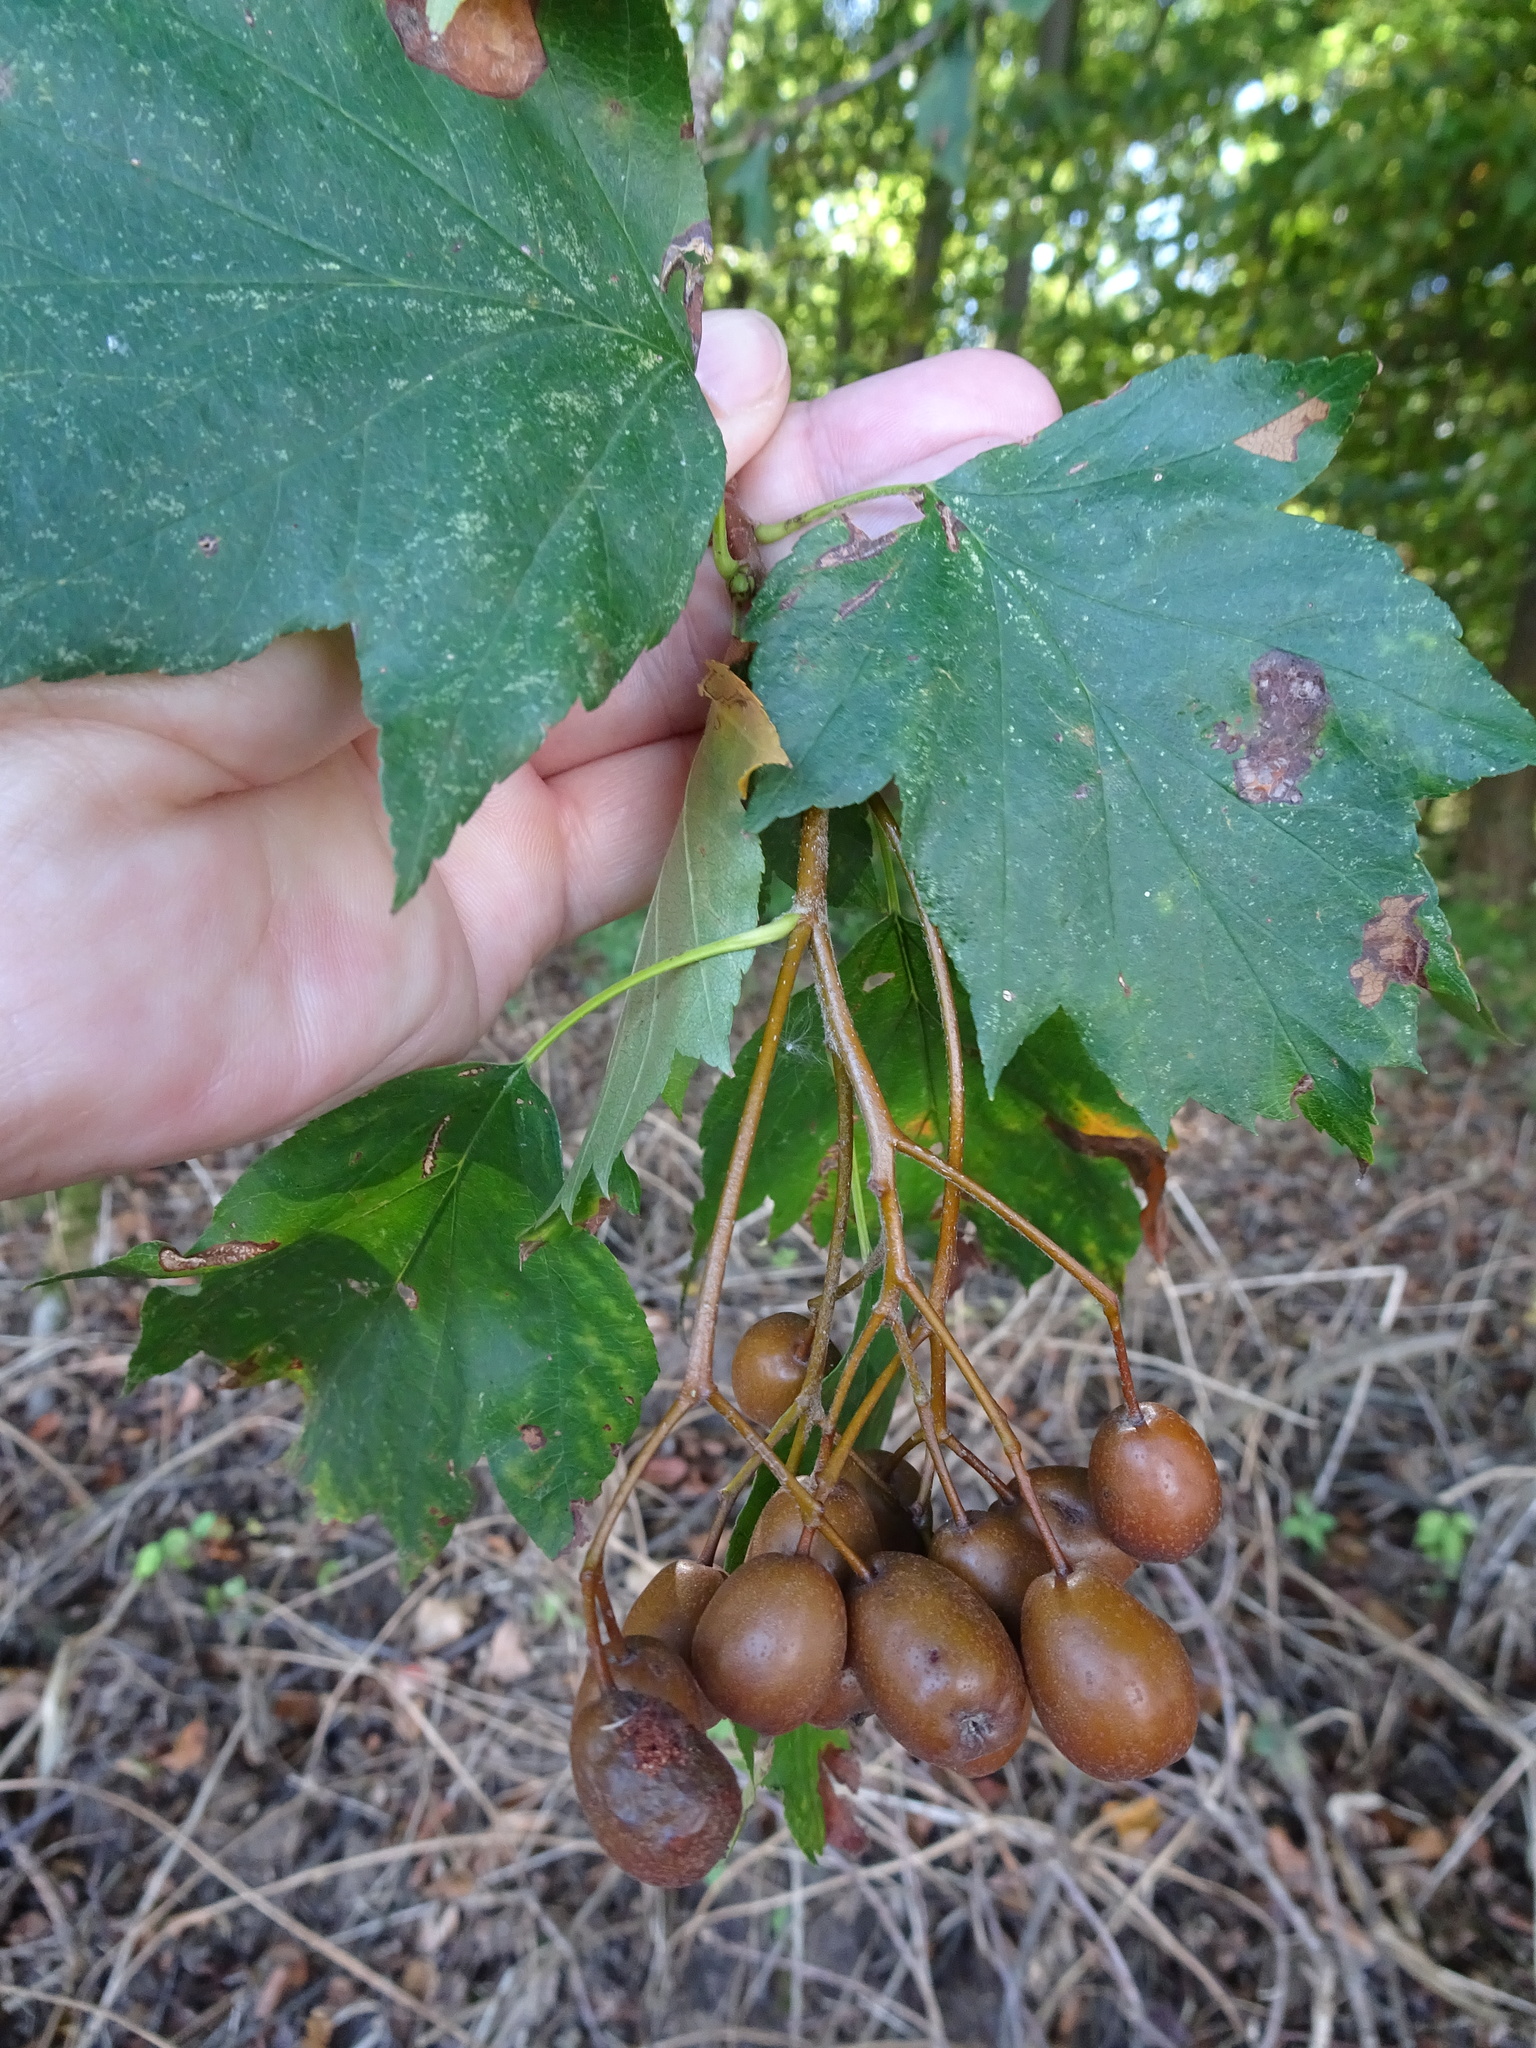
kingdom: Plantae
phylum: Tracheophyta
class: Magnoliopsida
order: Rosales
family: Rosaceae
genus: Torminalis
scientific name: Torminalis glaberrima
